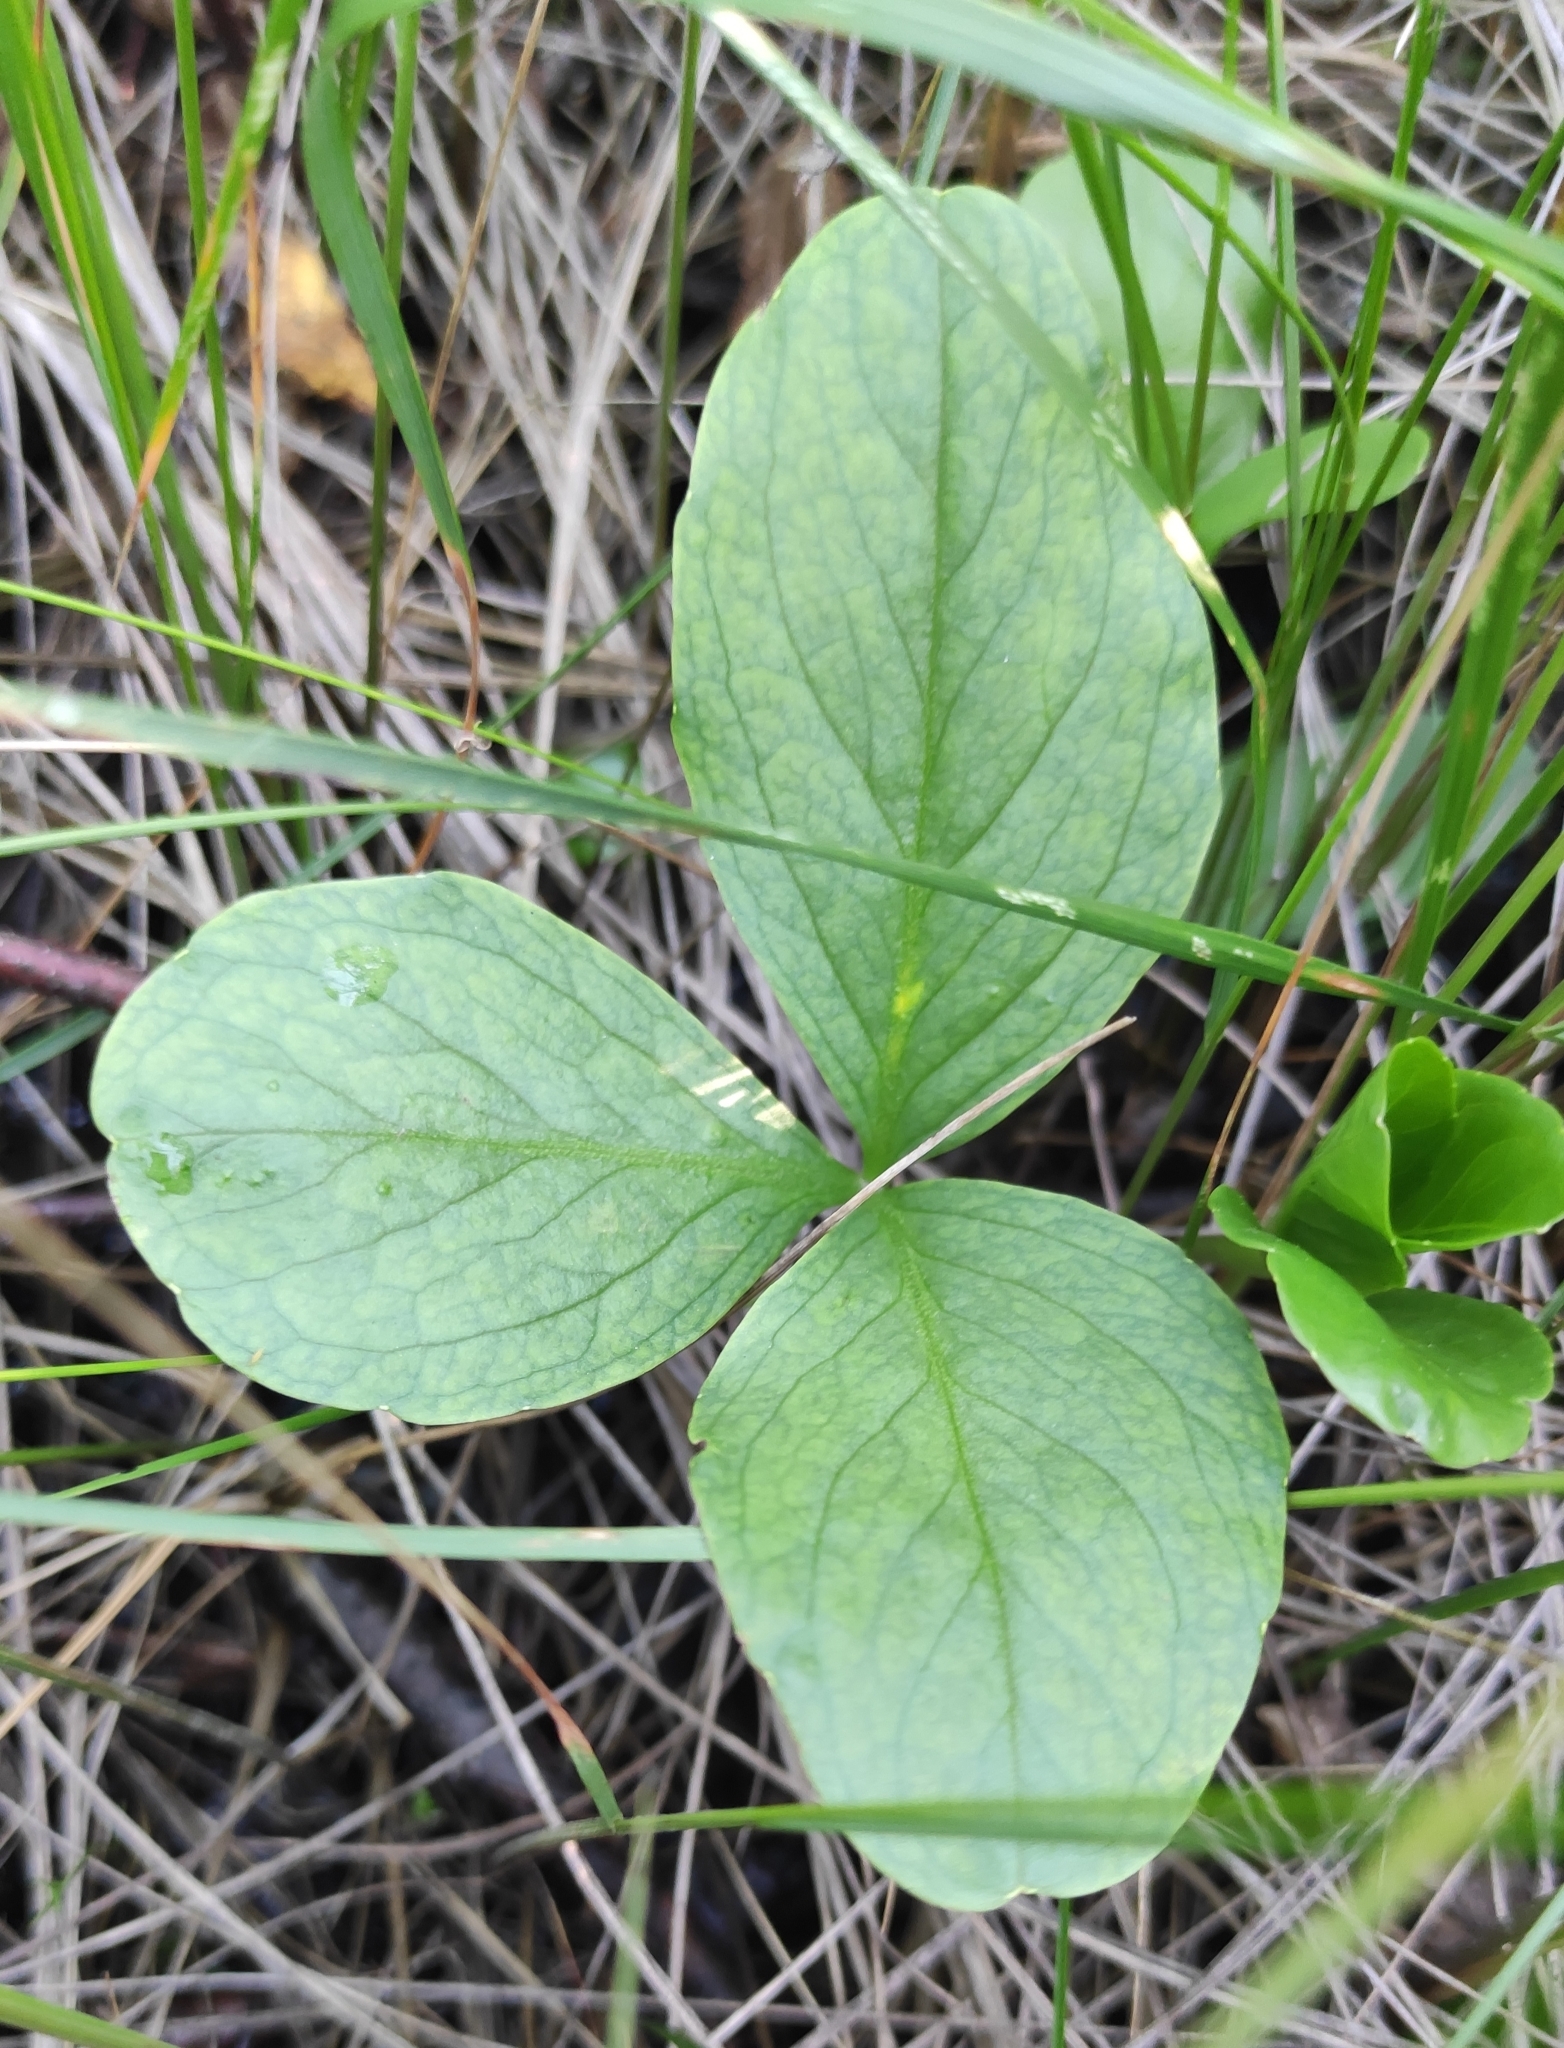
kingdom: Plantae
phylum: Tracheophyta
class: Magnoliopsida
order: Asterales
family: Menyanthaceae
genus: Menyanthes
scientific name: Menyanthes trifoliata
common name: Bogbean
